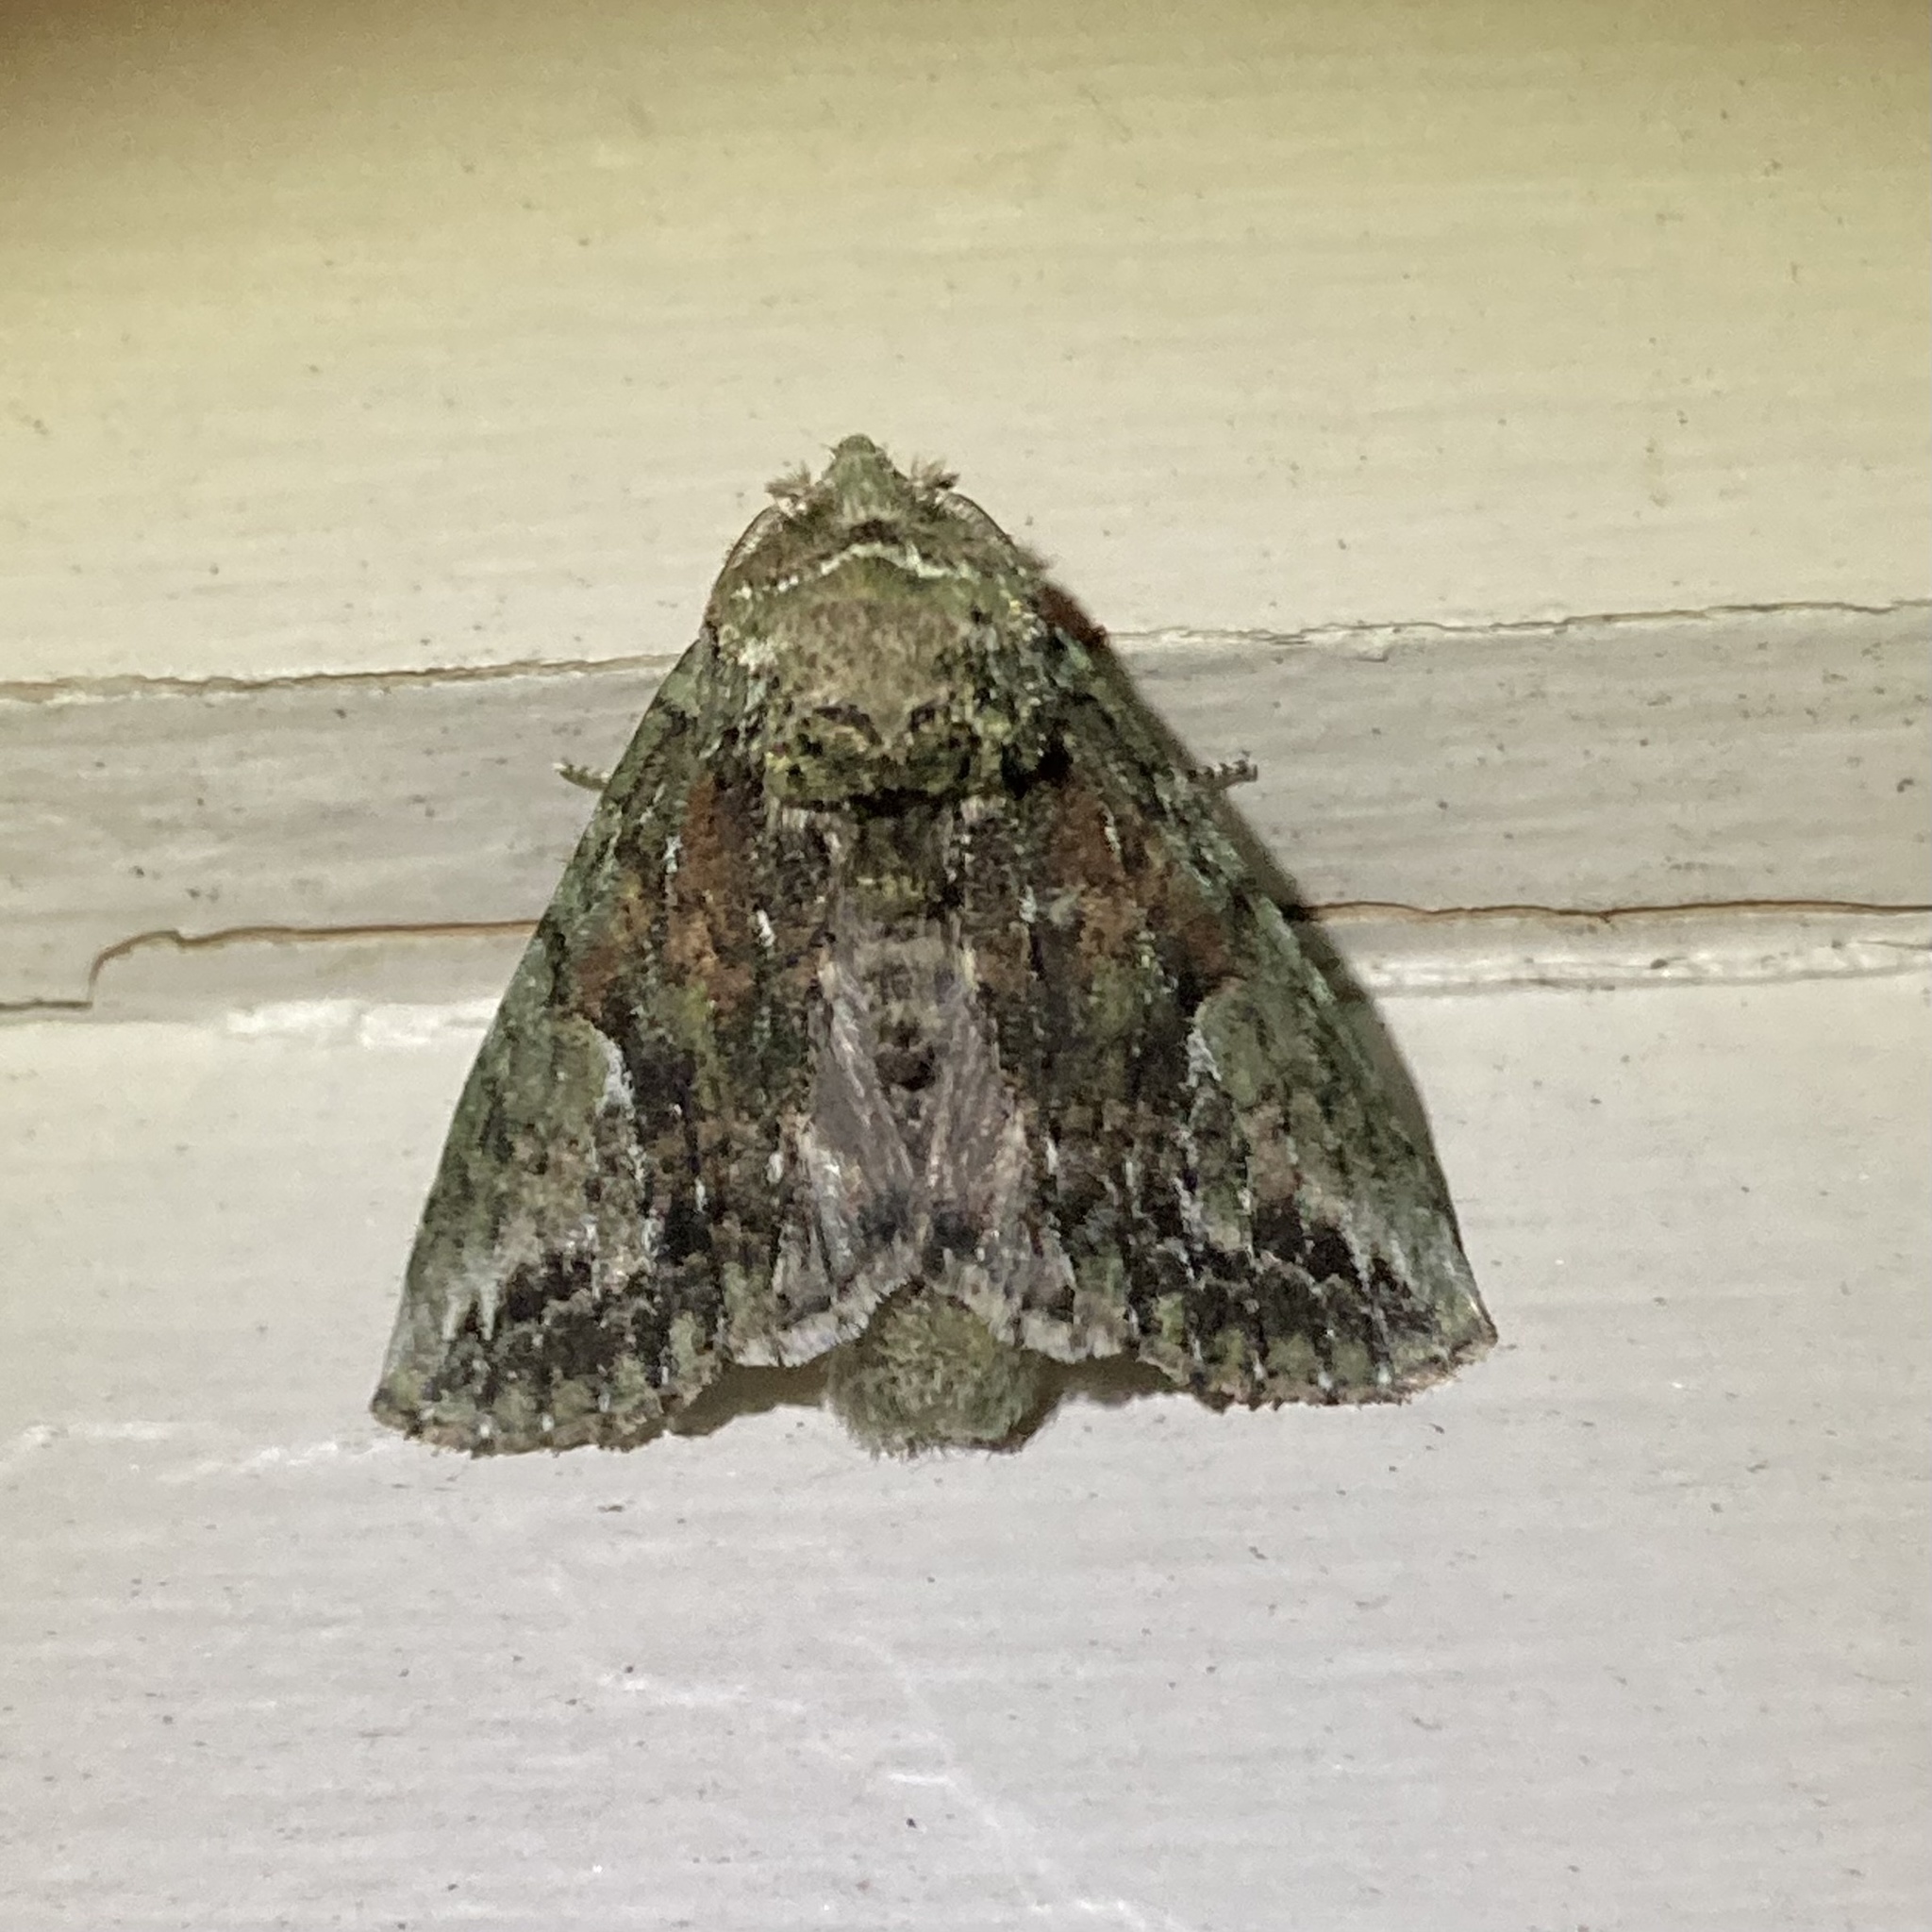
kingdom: Animalia
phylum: Arthropoda
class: Insecta
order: Lepidoptera
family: Notodontidae
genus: Heterocampa
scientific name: Heterocampa
